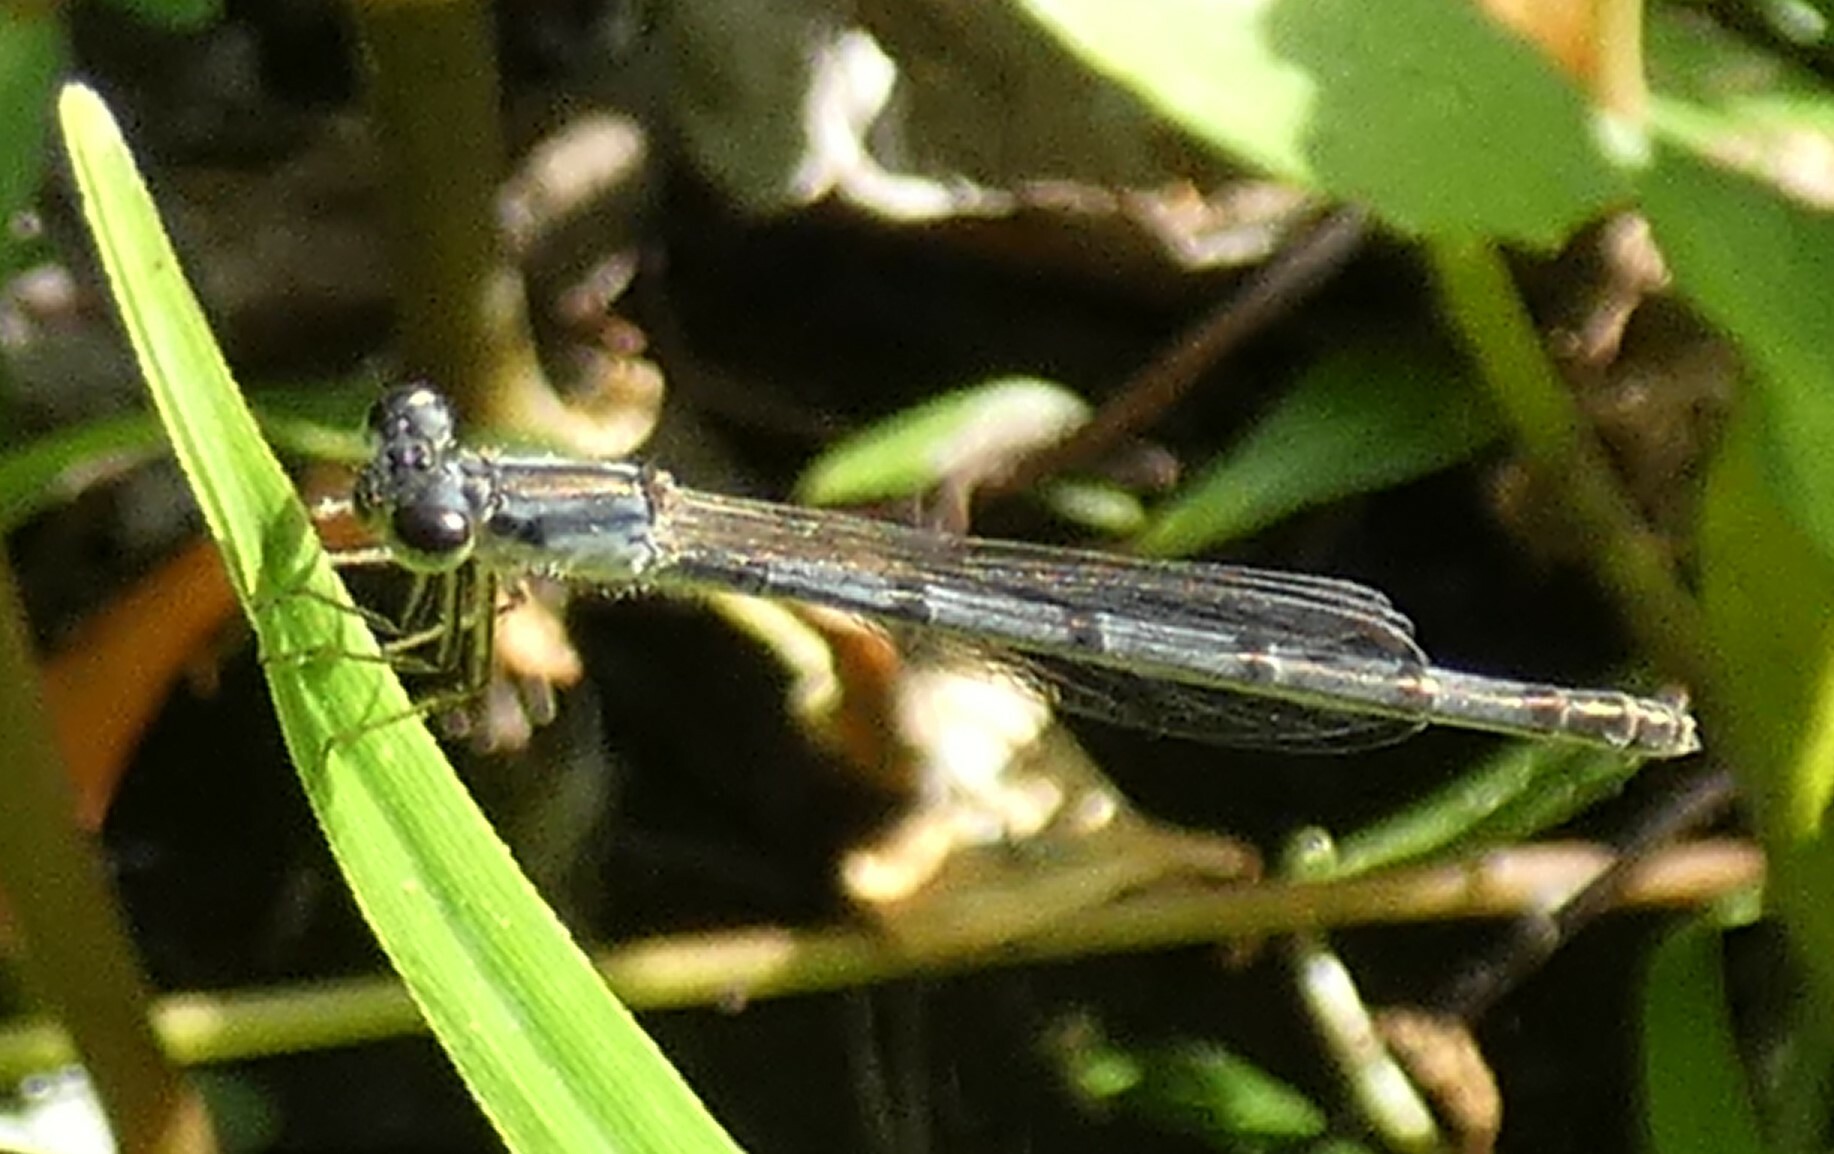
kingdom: Animalia
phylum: Arthropoda
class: Insecta
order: Odonata
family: Coenagrionidae
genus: Ischnura
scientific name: Ischnura posita
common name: Fragile forktail
